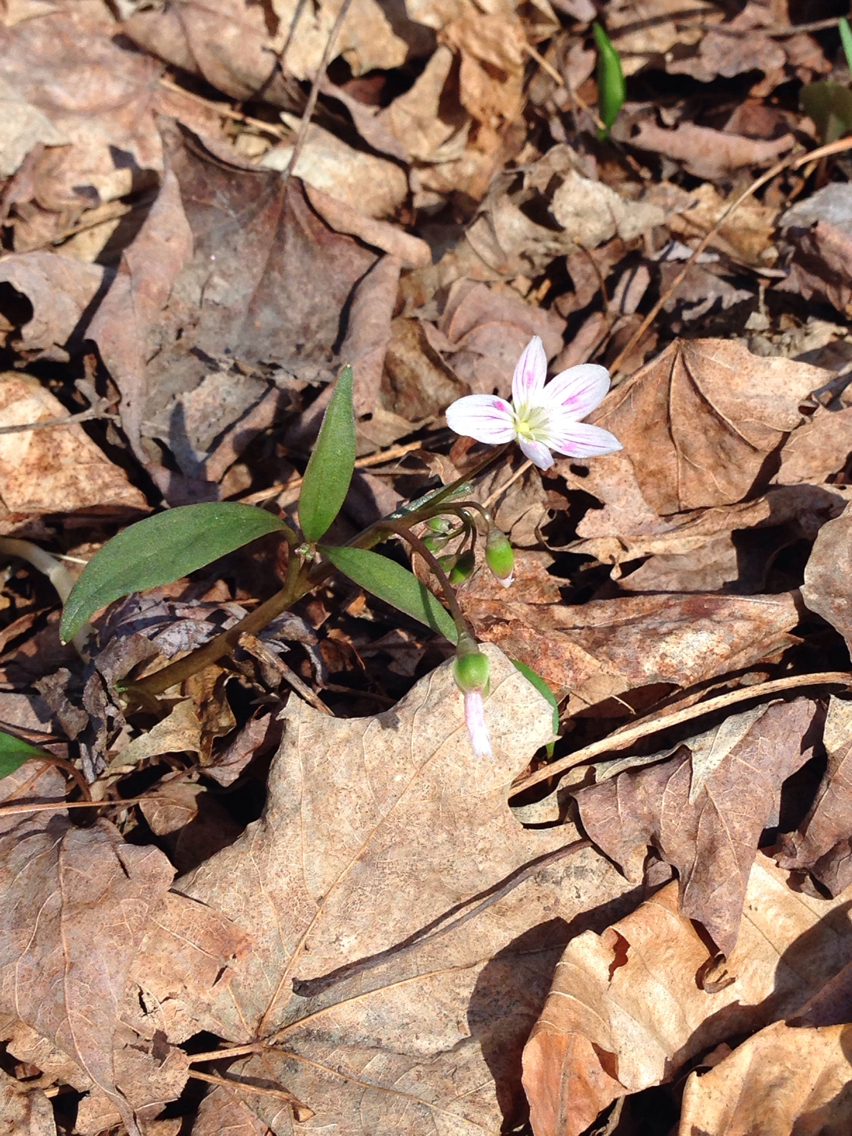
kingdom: Plantae
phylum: Tracheophyta
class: Magnoliopsida
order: Caryophyllales
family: Montiaceae
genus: Claytonia
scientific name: Claytonia caroliniana
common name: Carolina spring beauty
